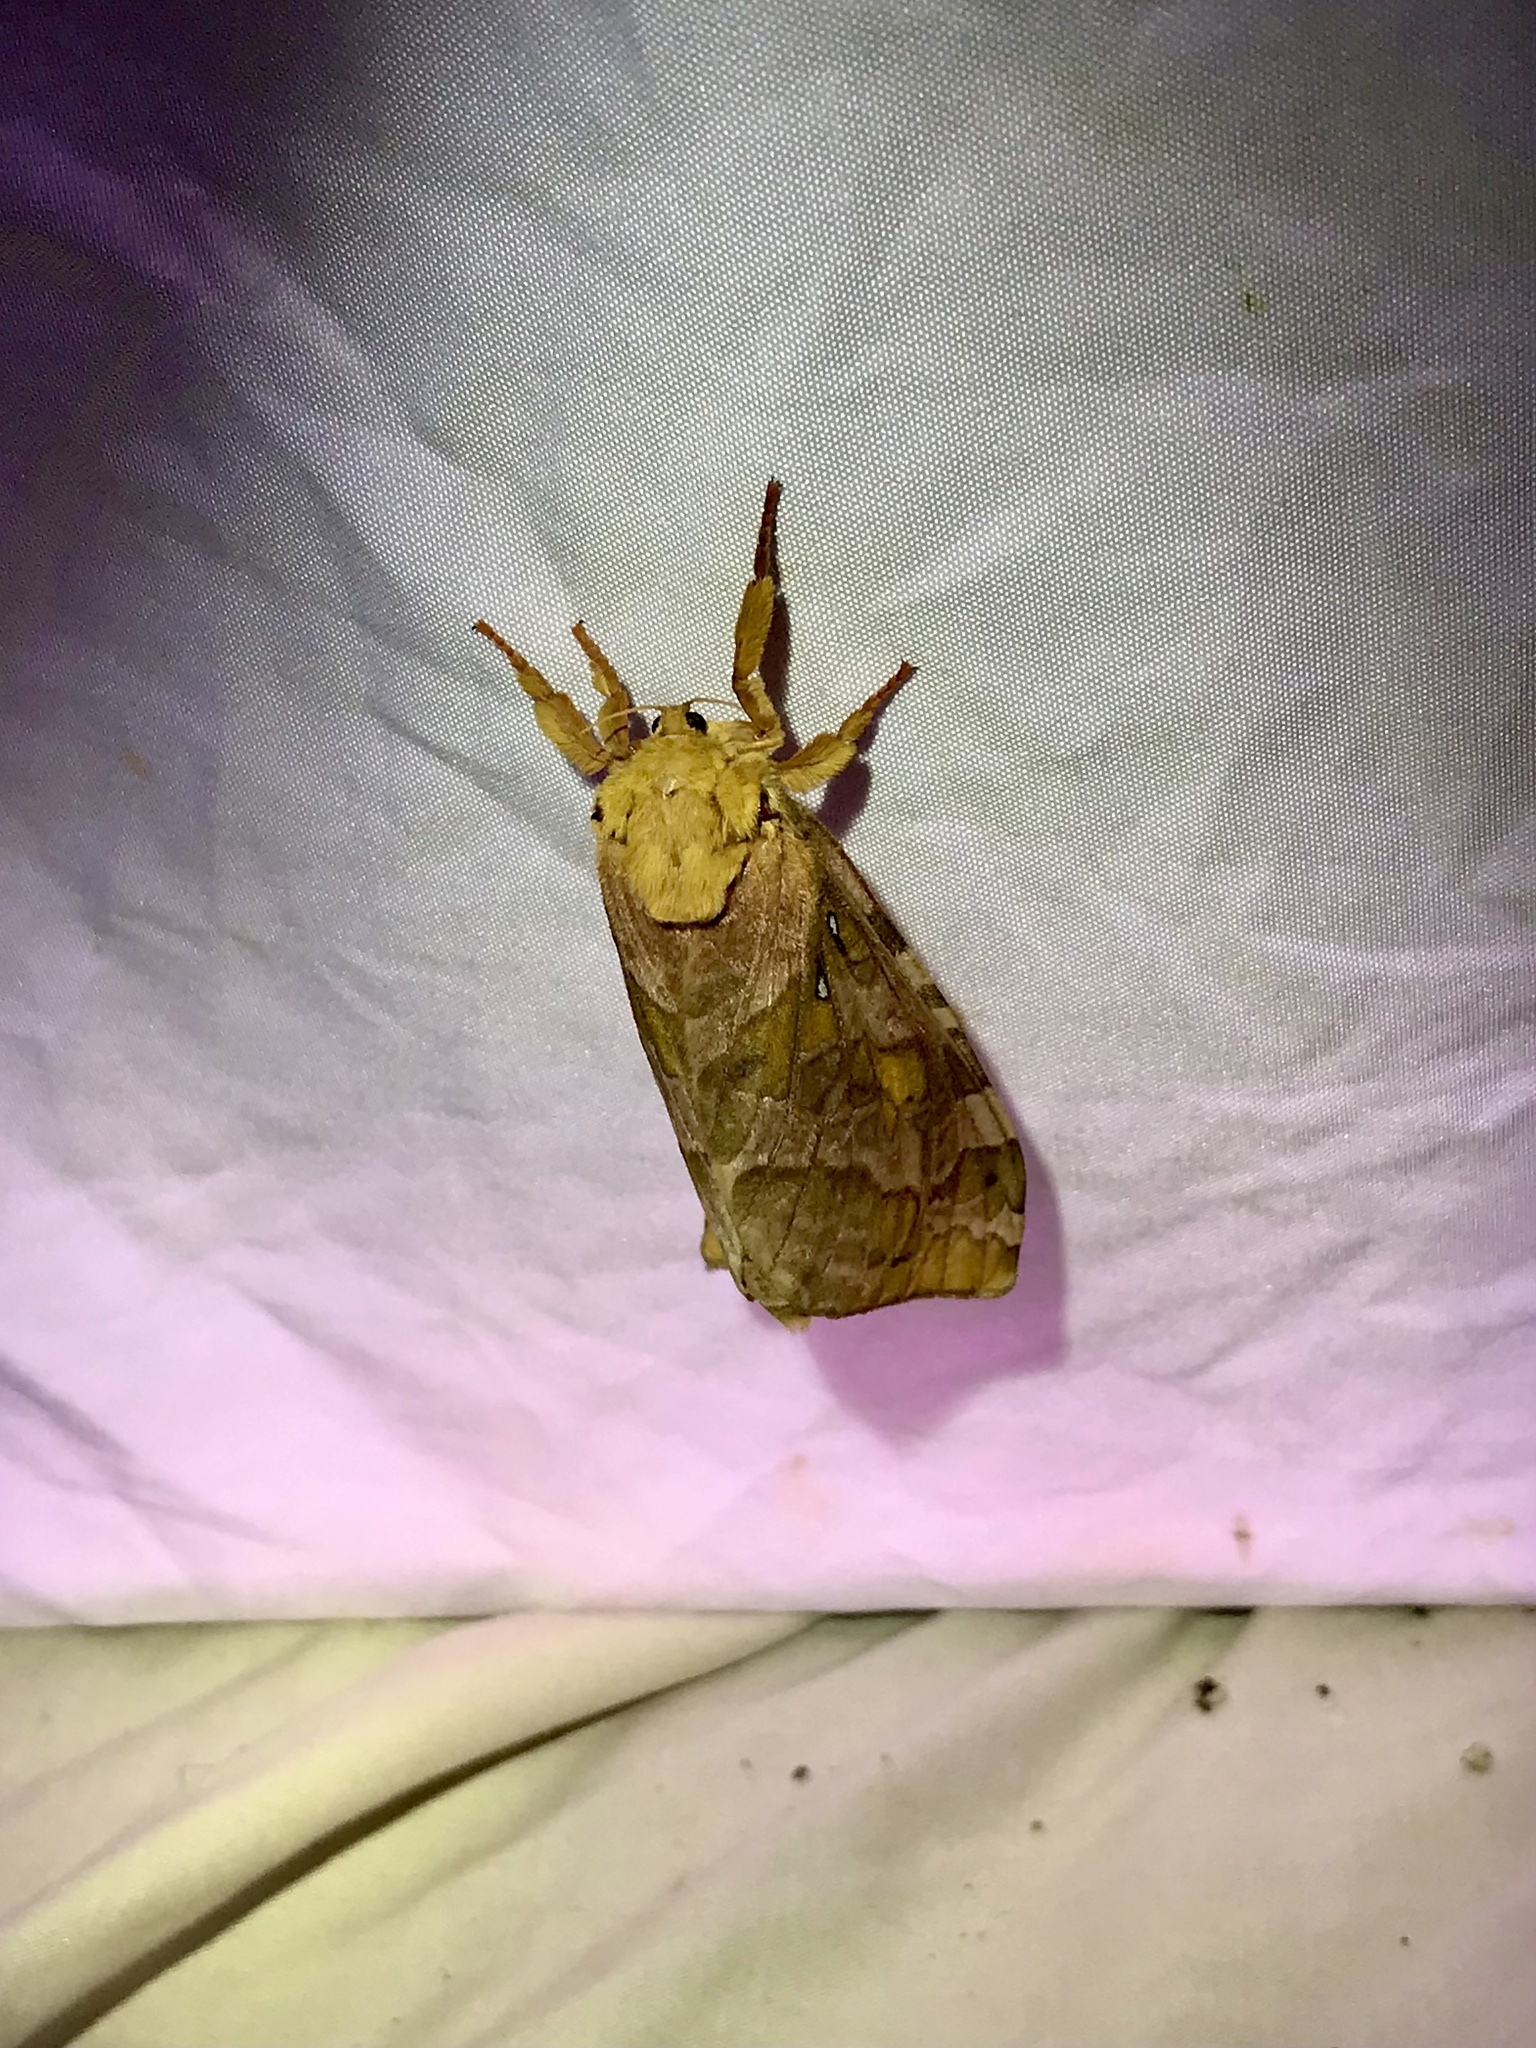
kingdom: Animalia
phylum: Arthropoda
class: Insecta
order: Lepidoptera
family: Hepialidae
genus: Sthenopis
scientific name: Sthenopis purpurascens
